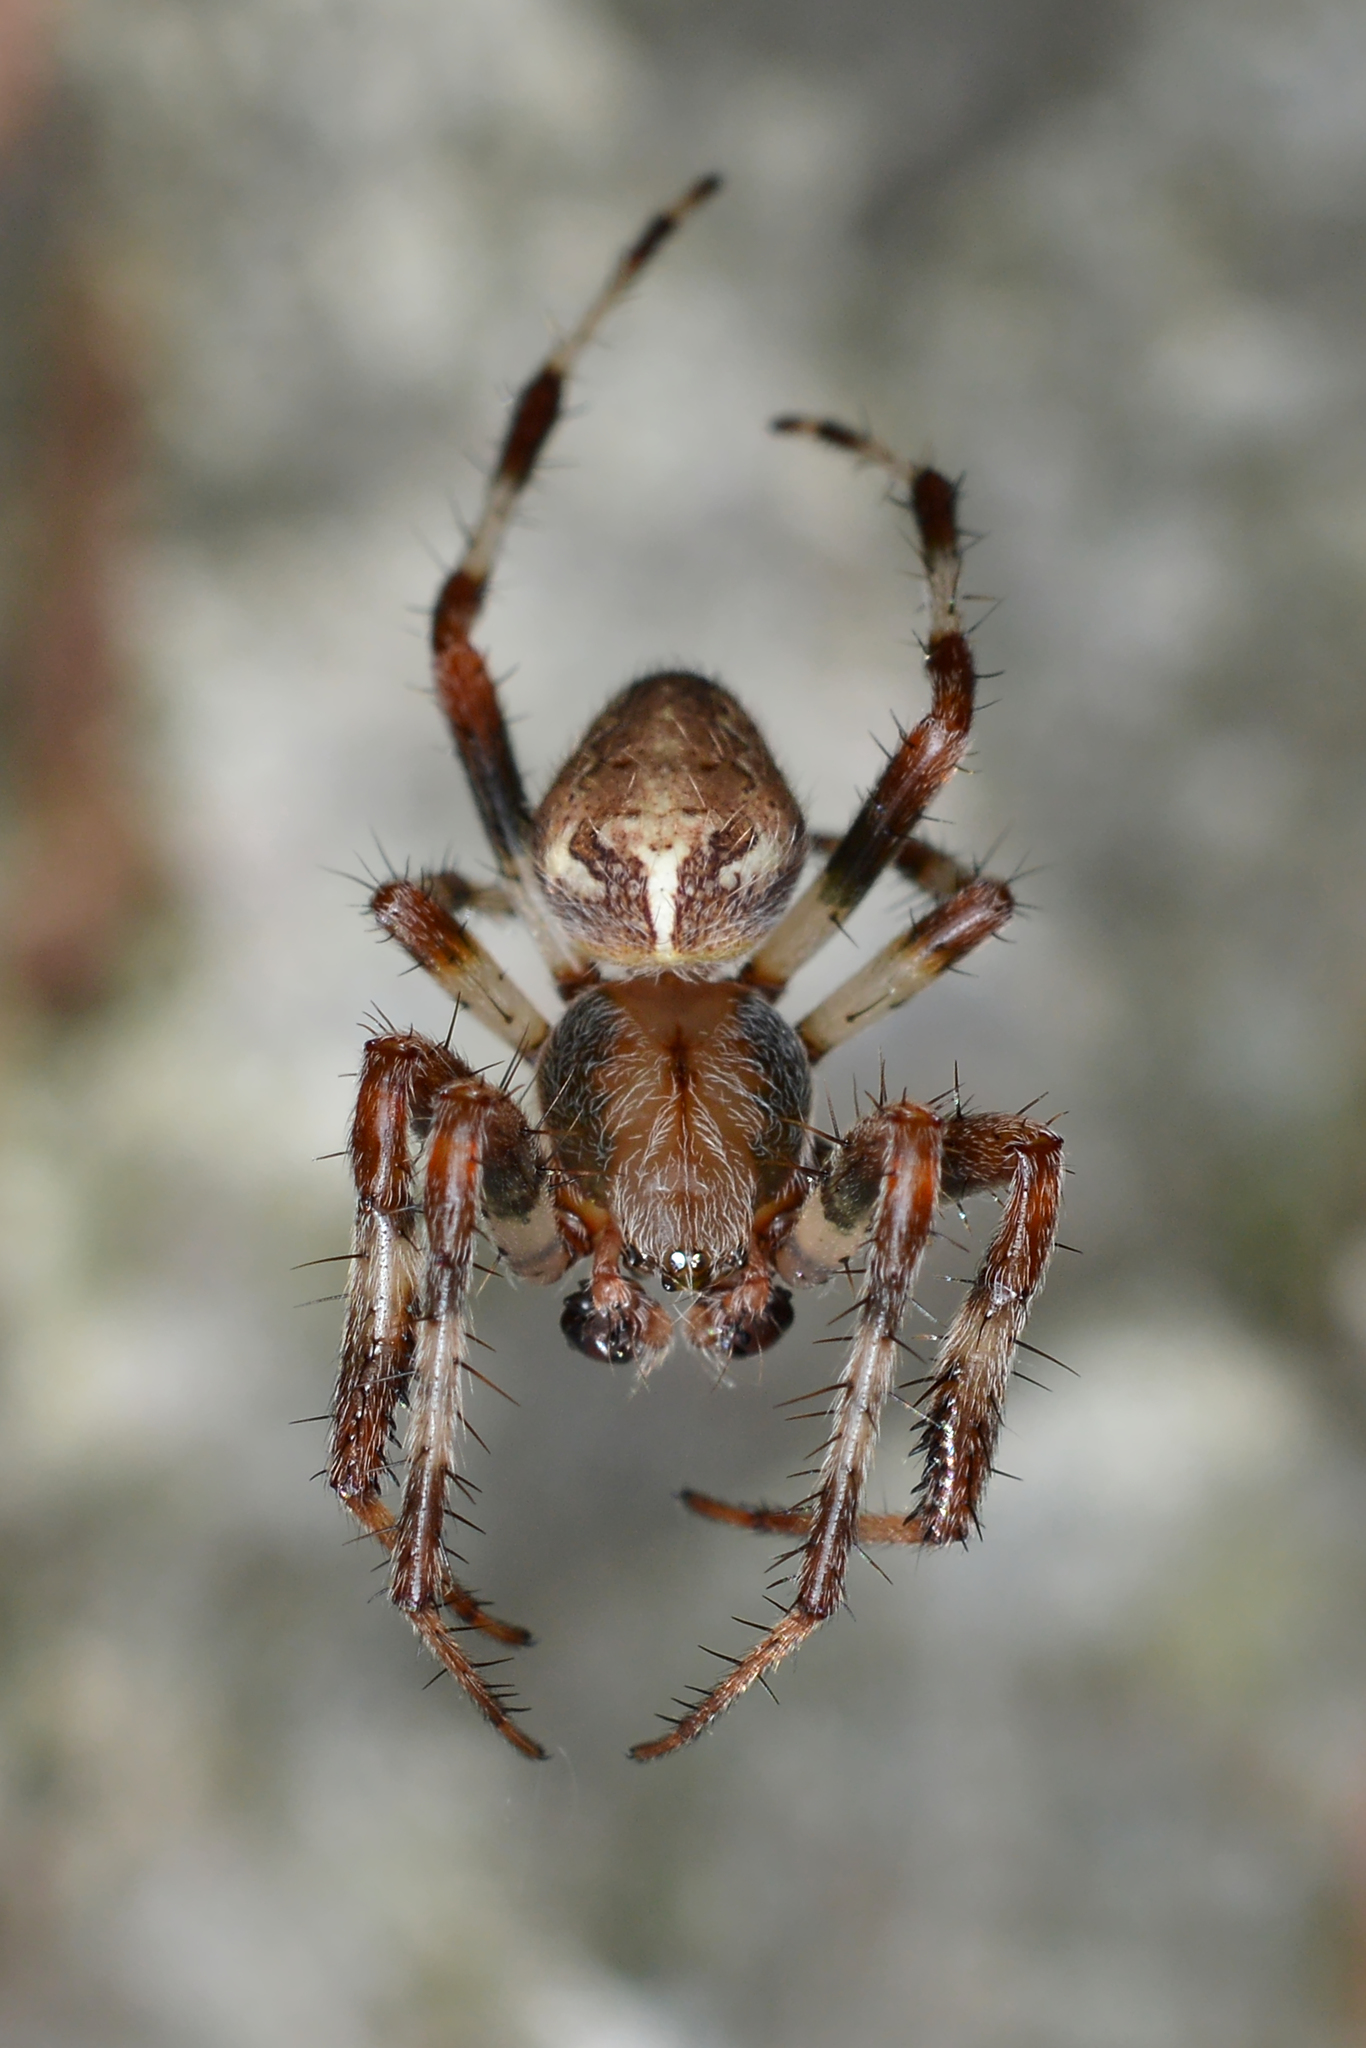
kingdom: Animalia
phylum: Arthropoda
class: Arachnida
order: Araneae
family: Araneidae
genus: Araneus
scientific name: Araneus marmoreus
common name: Marbled orbweaver
